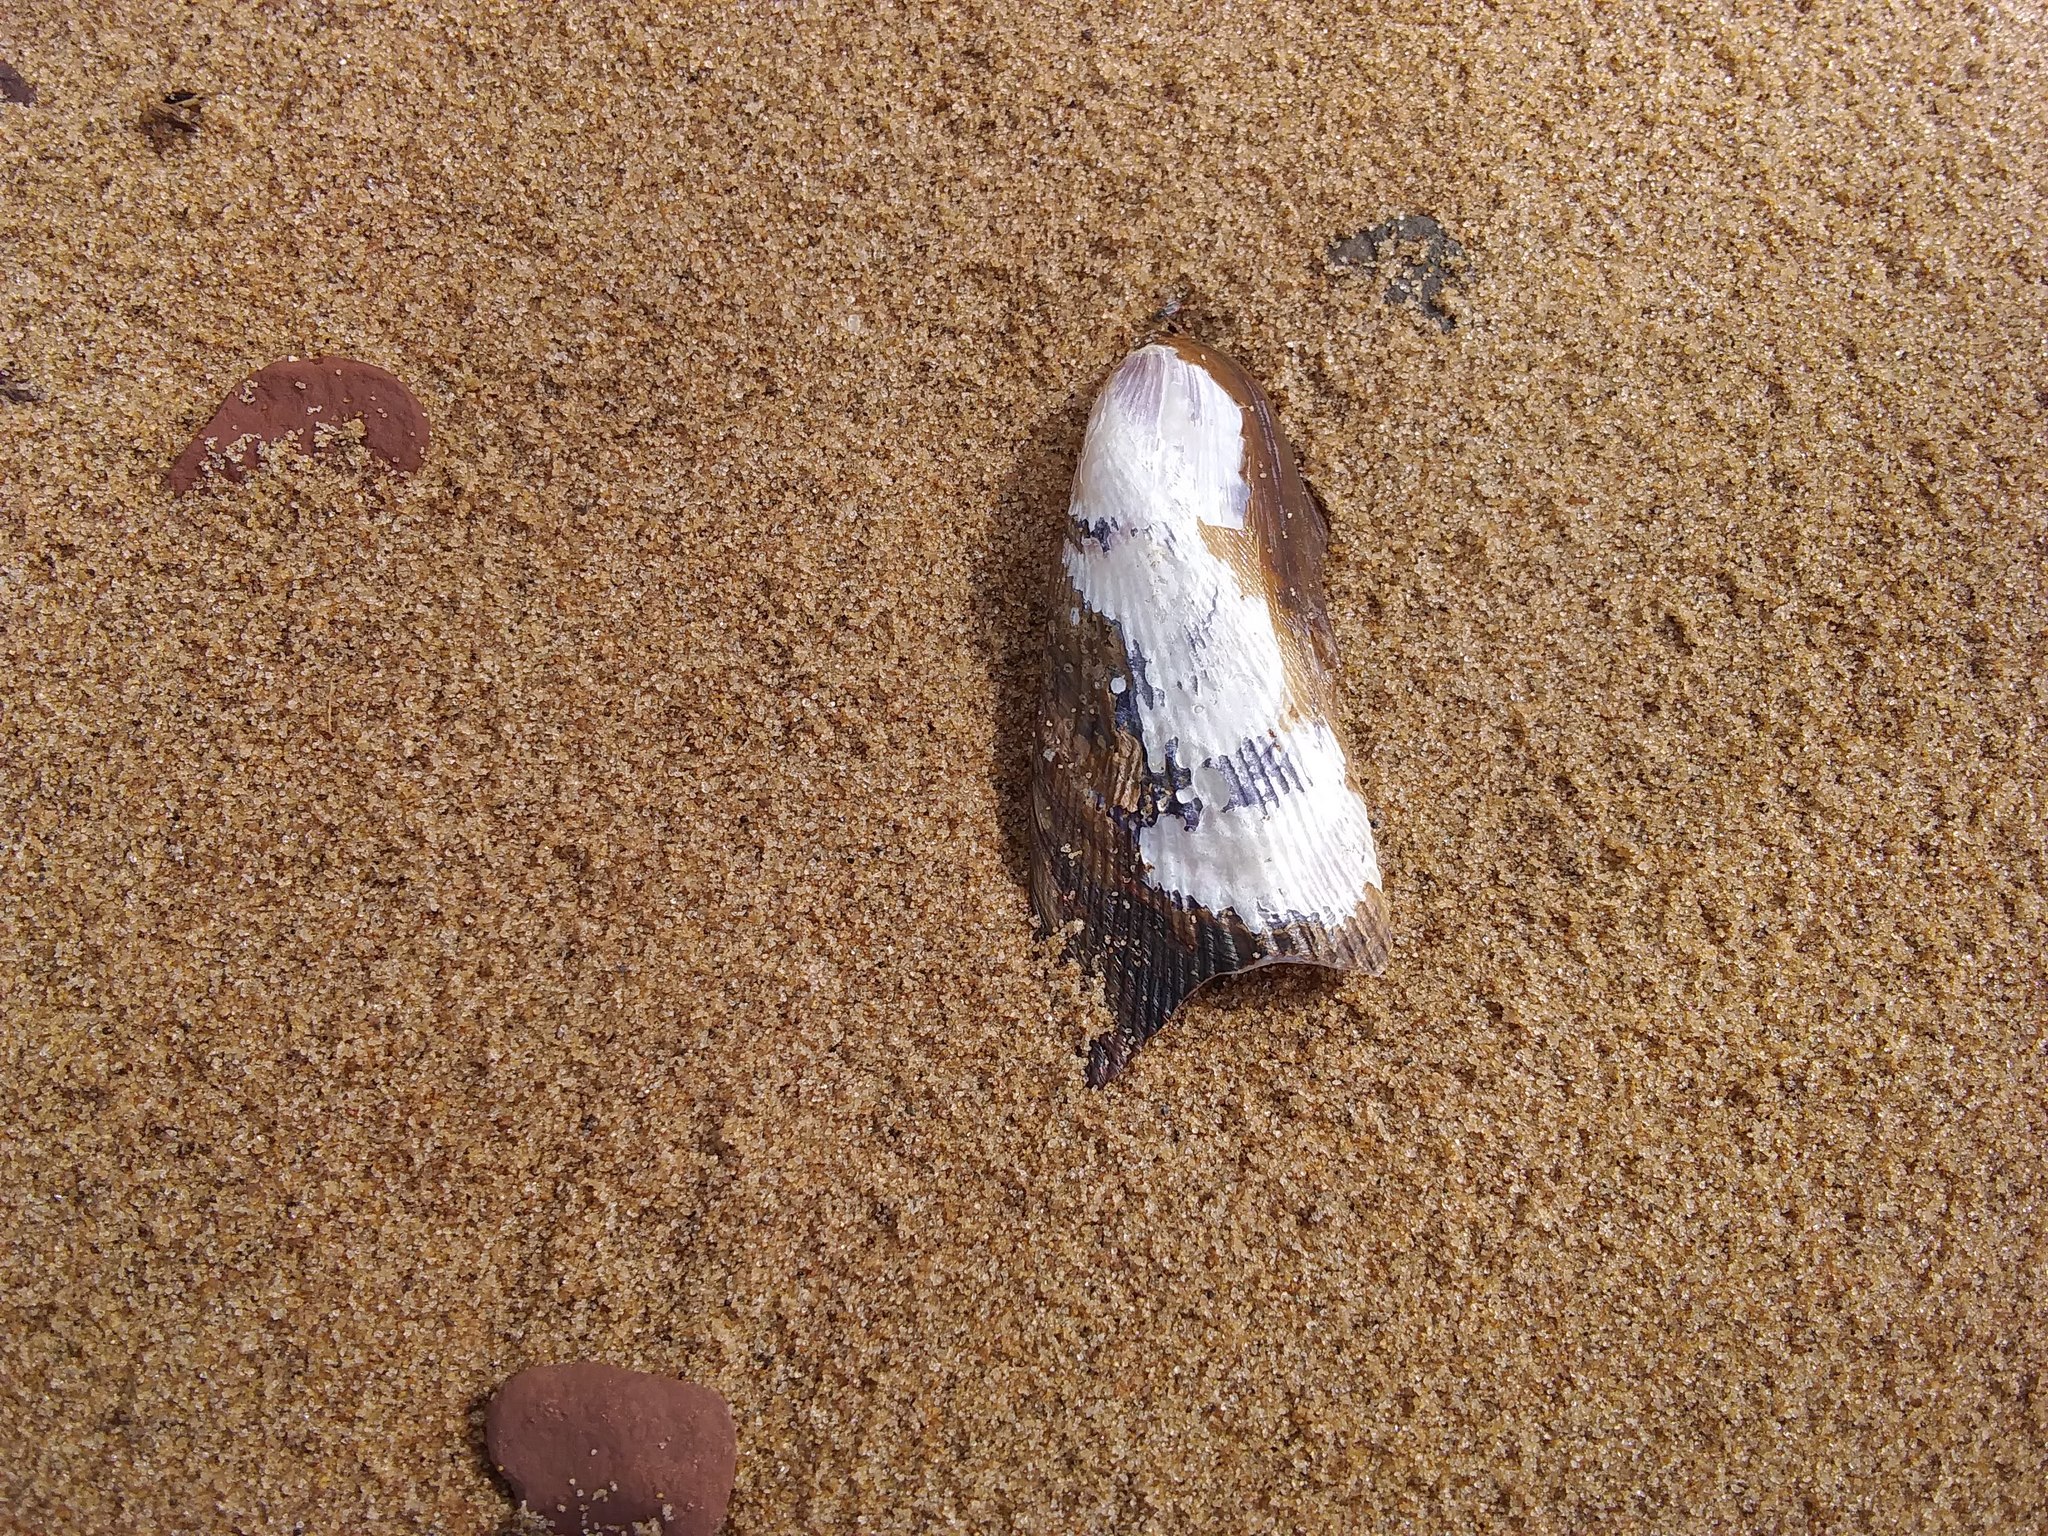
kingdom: Animalia
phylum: Mollusca
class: Bivalvia
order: Mytilida
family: Mytilidae
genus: Geukensia
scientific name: Geukensia demissa
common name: Ribbed mussel
